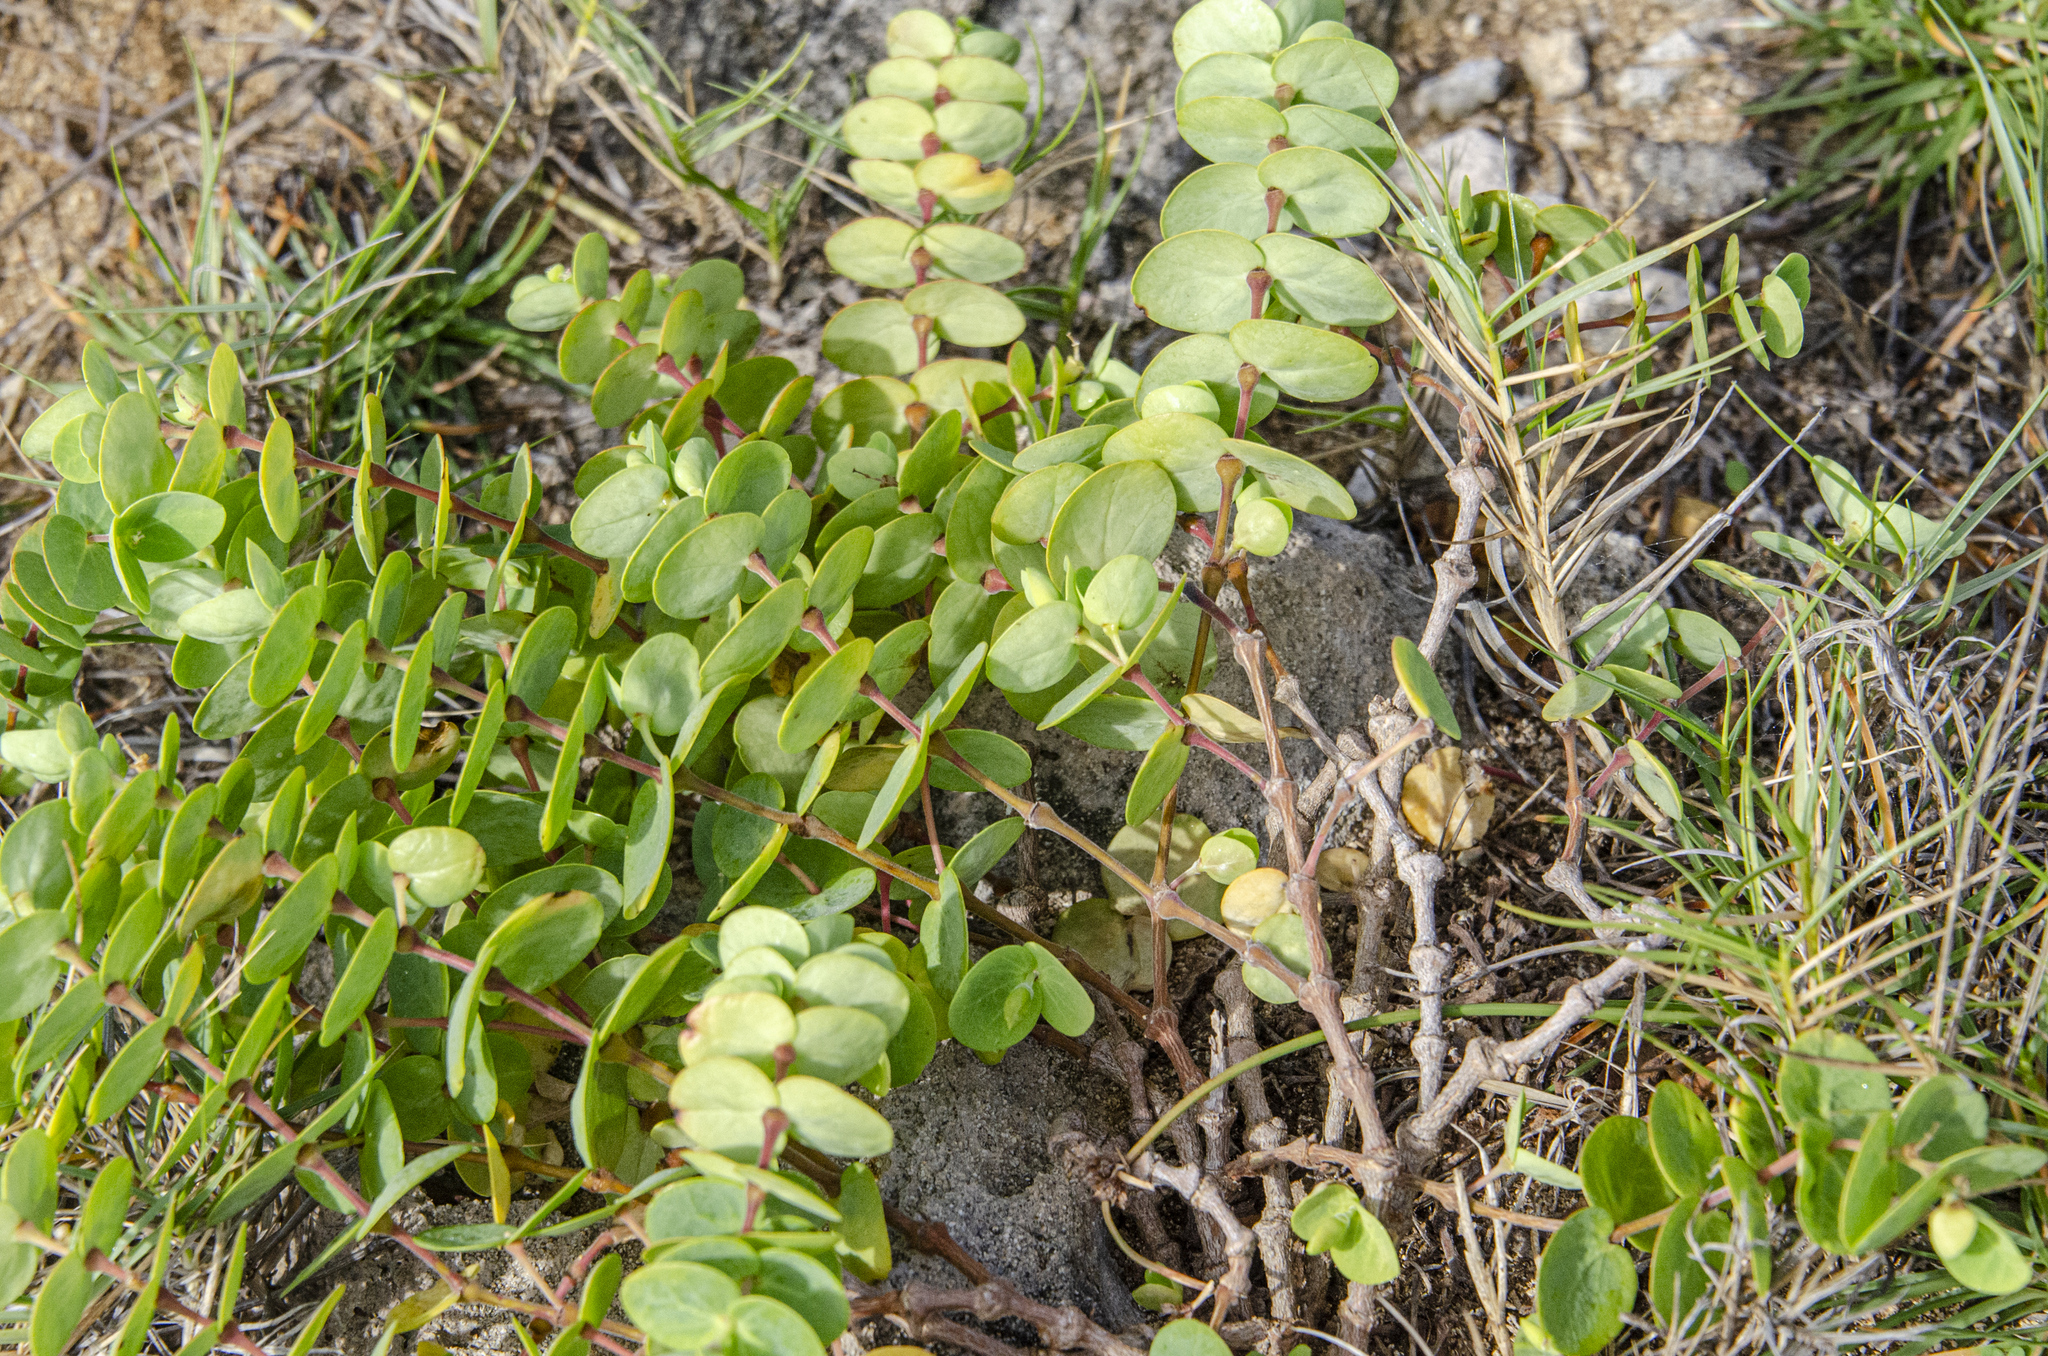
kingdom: Plantae
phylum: Tracheophyta
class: Magnoliopsida
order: Malpighiales
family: Euphorbiaceae
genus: Euphorbia
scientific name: Euphorbia degeneri
